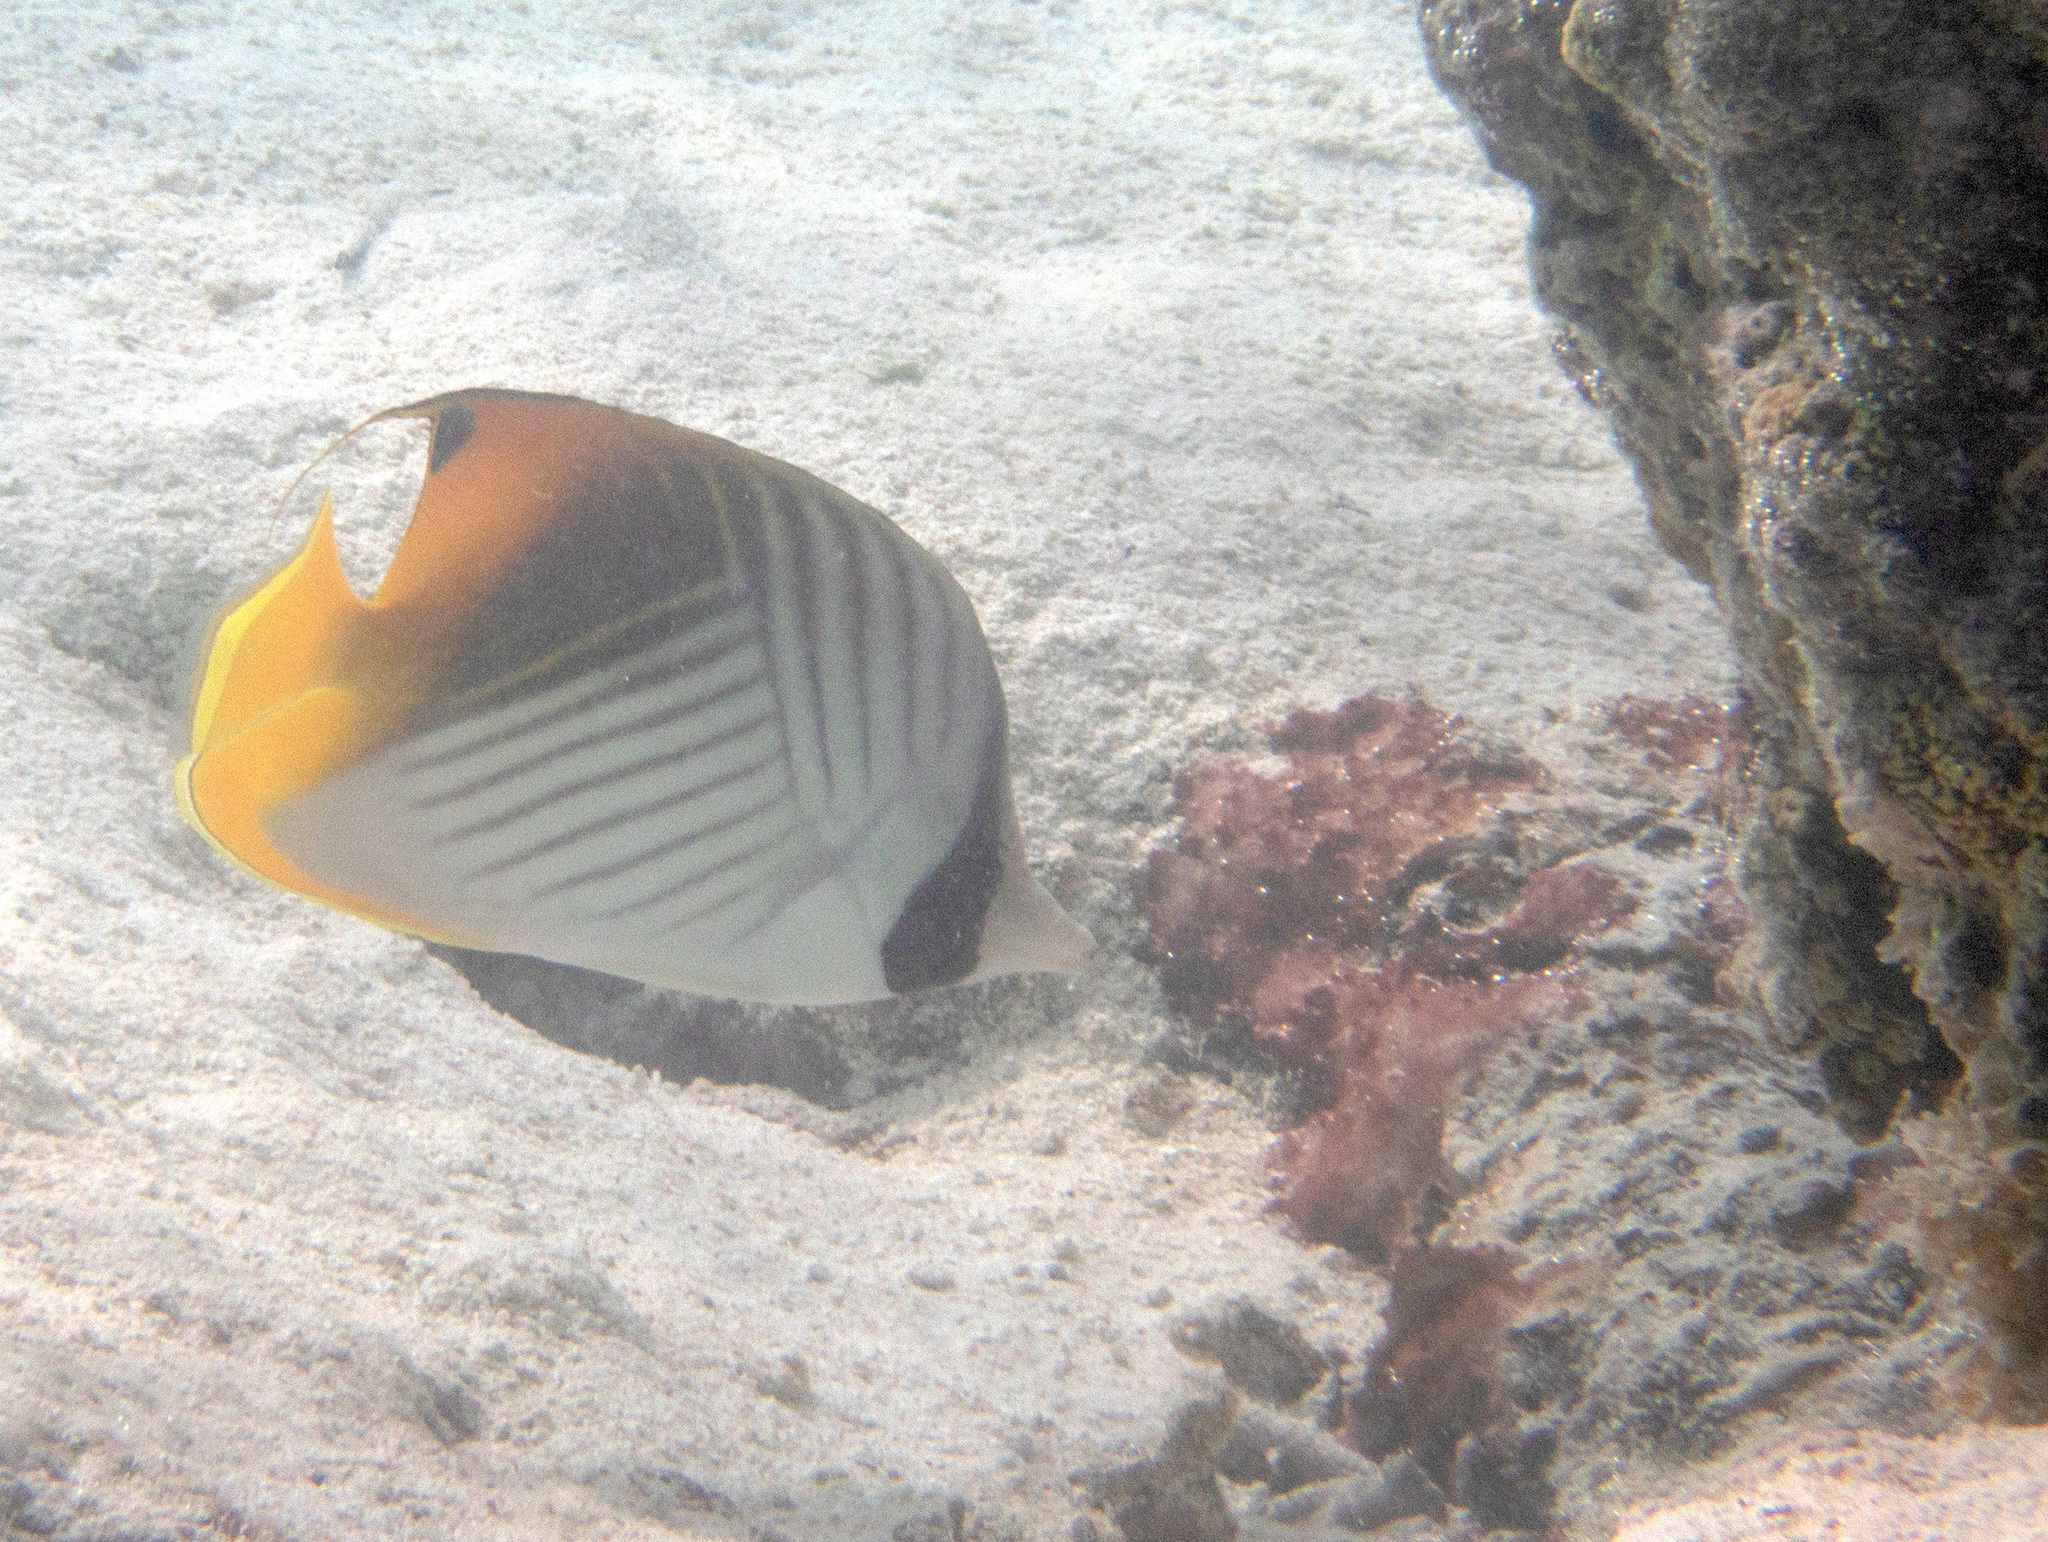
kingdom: Animalia
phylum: Chordata
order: Perciformes
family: Chaetodontidae
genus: Chaetodon
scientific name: Chaetodon auriga
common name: Threadfin butterflyfish
